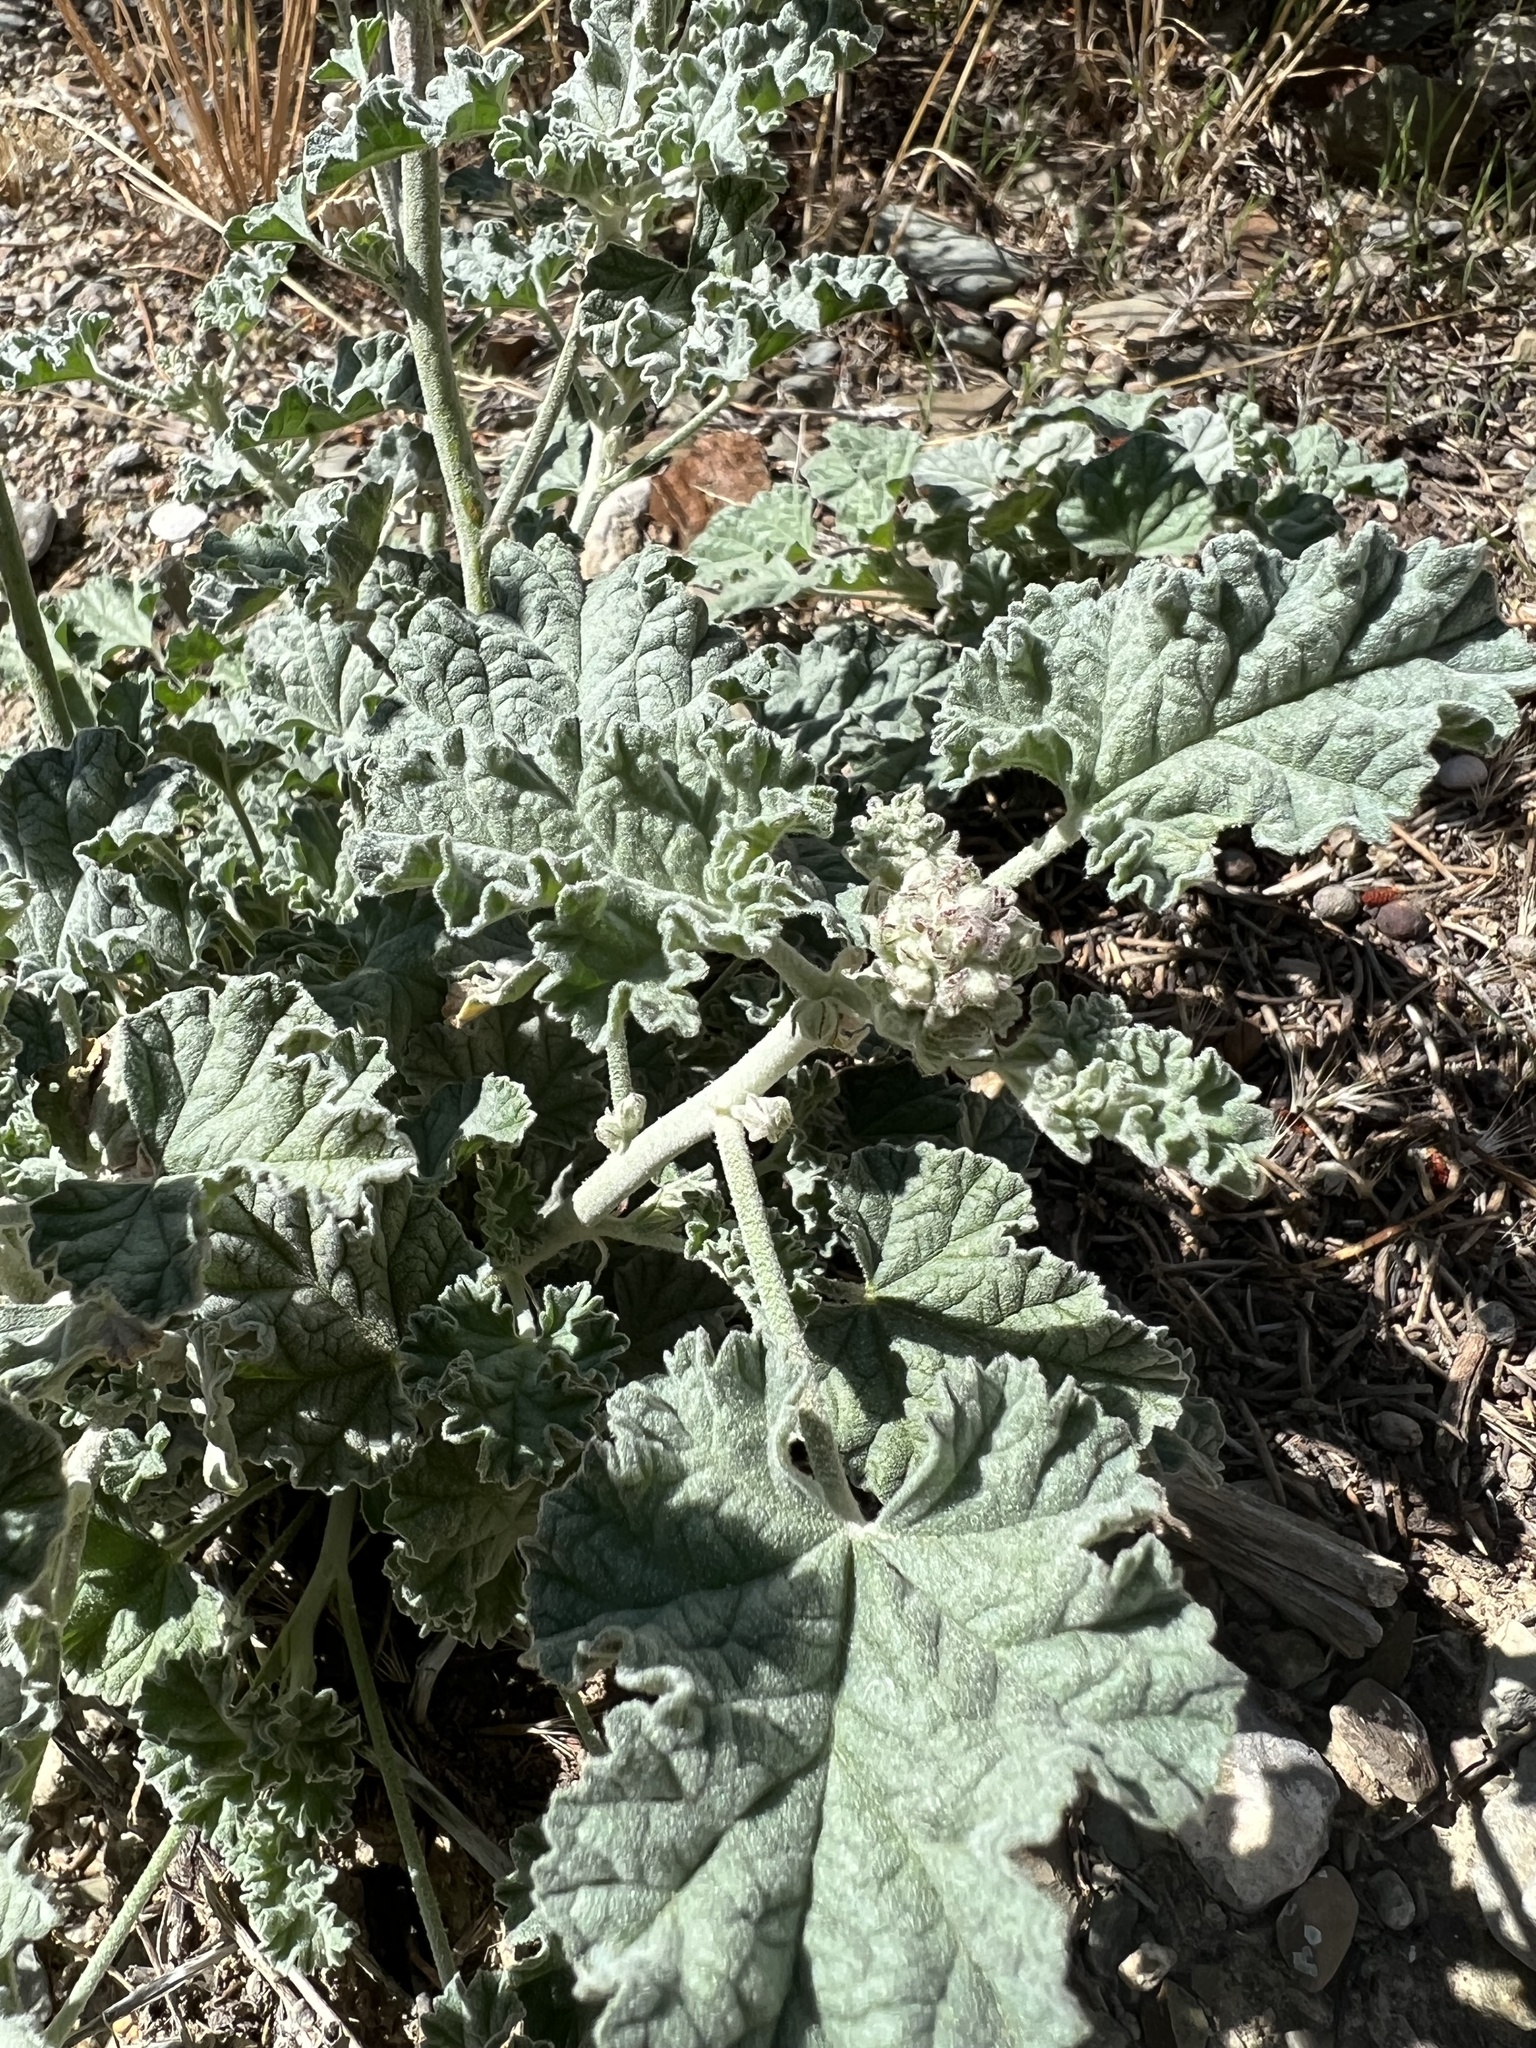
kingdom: Plantae
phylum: Tracheophyta
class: Magnoliopsida
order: Malvales
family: Malvaceae
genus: Sphaeralcea
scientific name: Sphaeralcea ambigua
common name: Apricot globe-mallow
